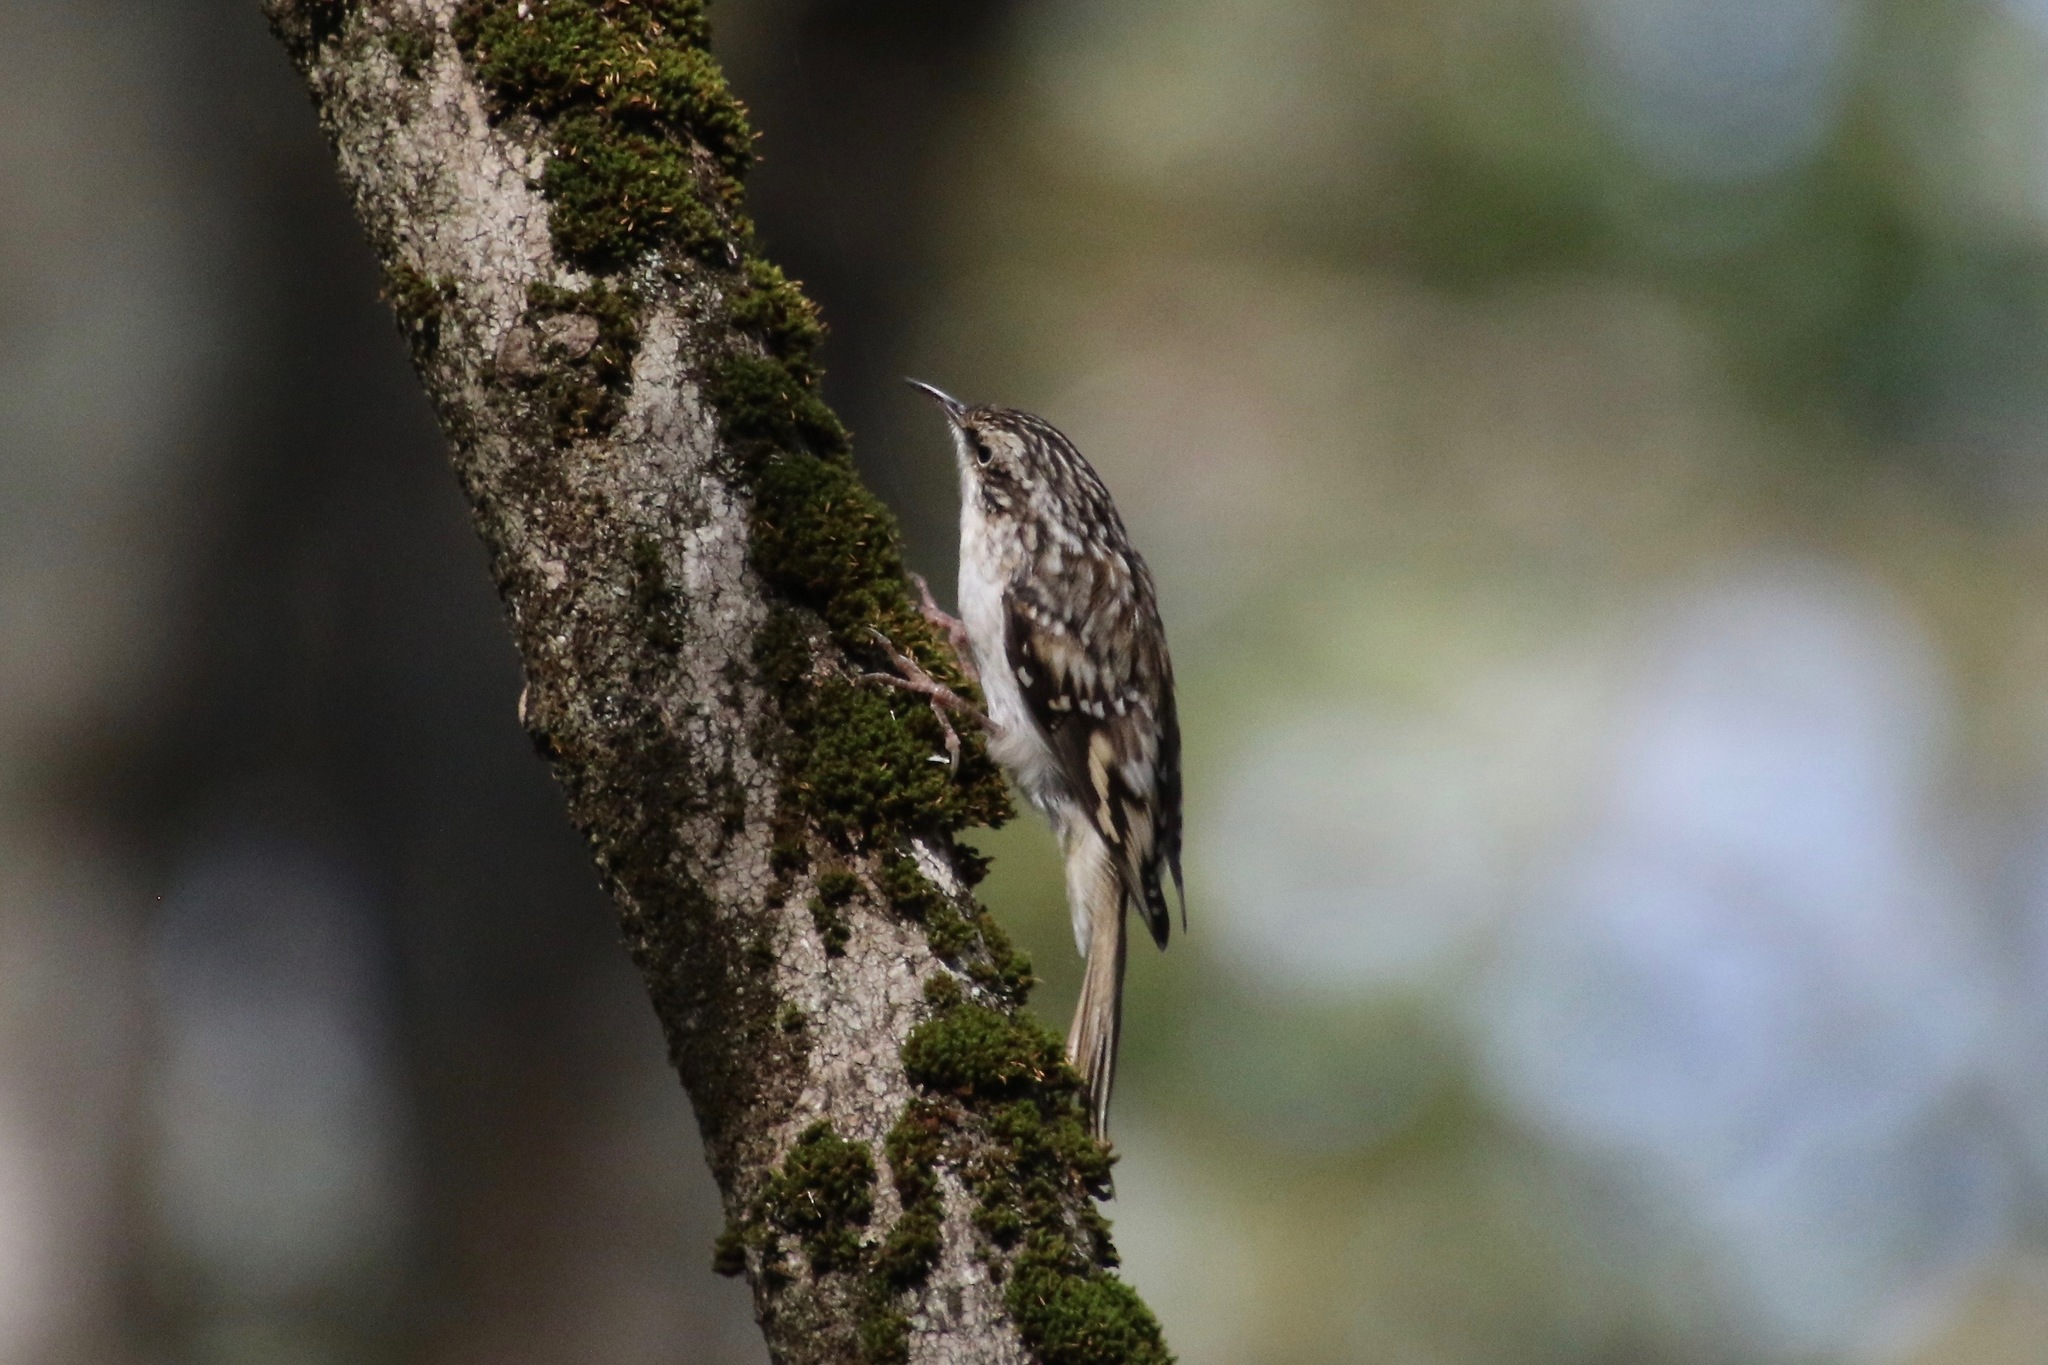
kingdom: Animalia
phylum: Chordata
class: Aves
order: Passeriformes
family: Certhiidae
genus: Certhia
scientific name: Certhia americana
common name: Brown creeper
